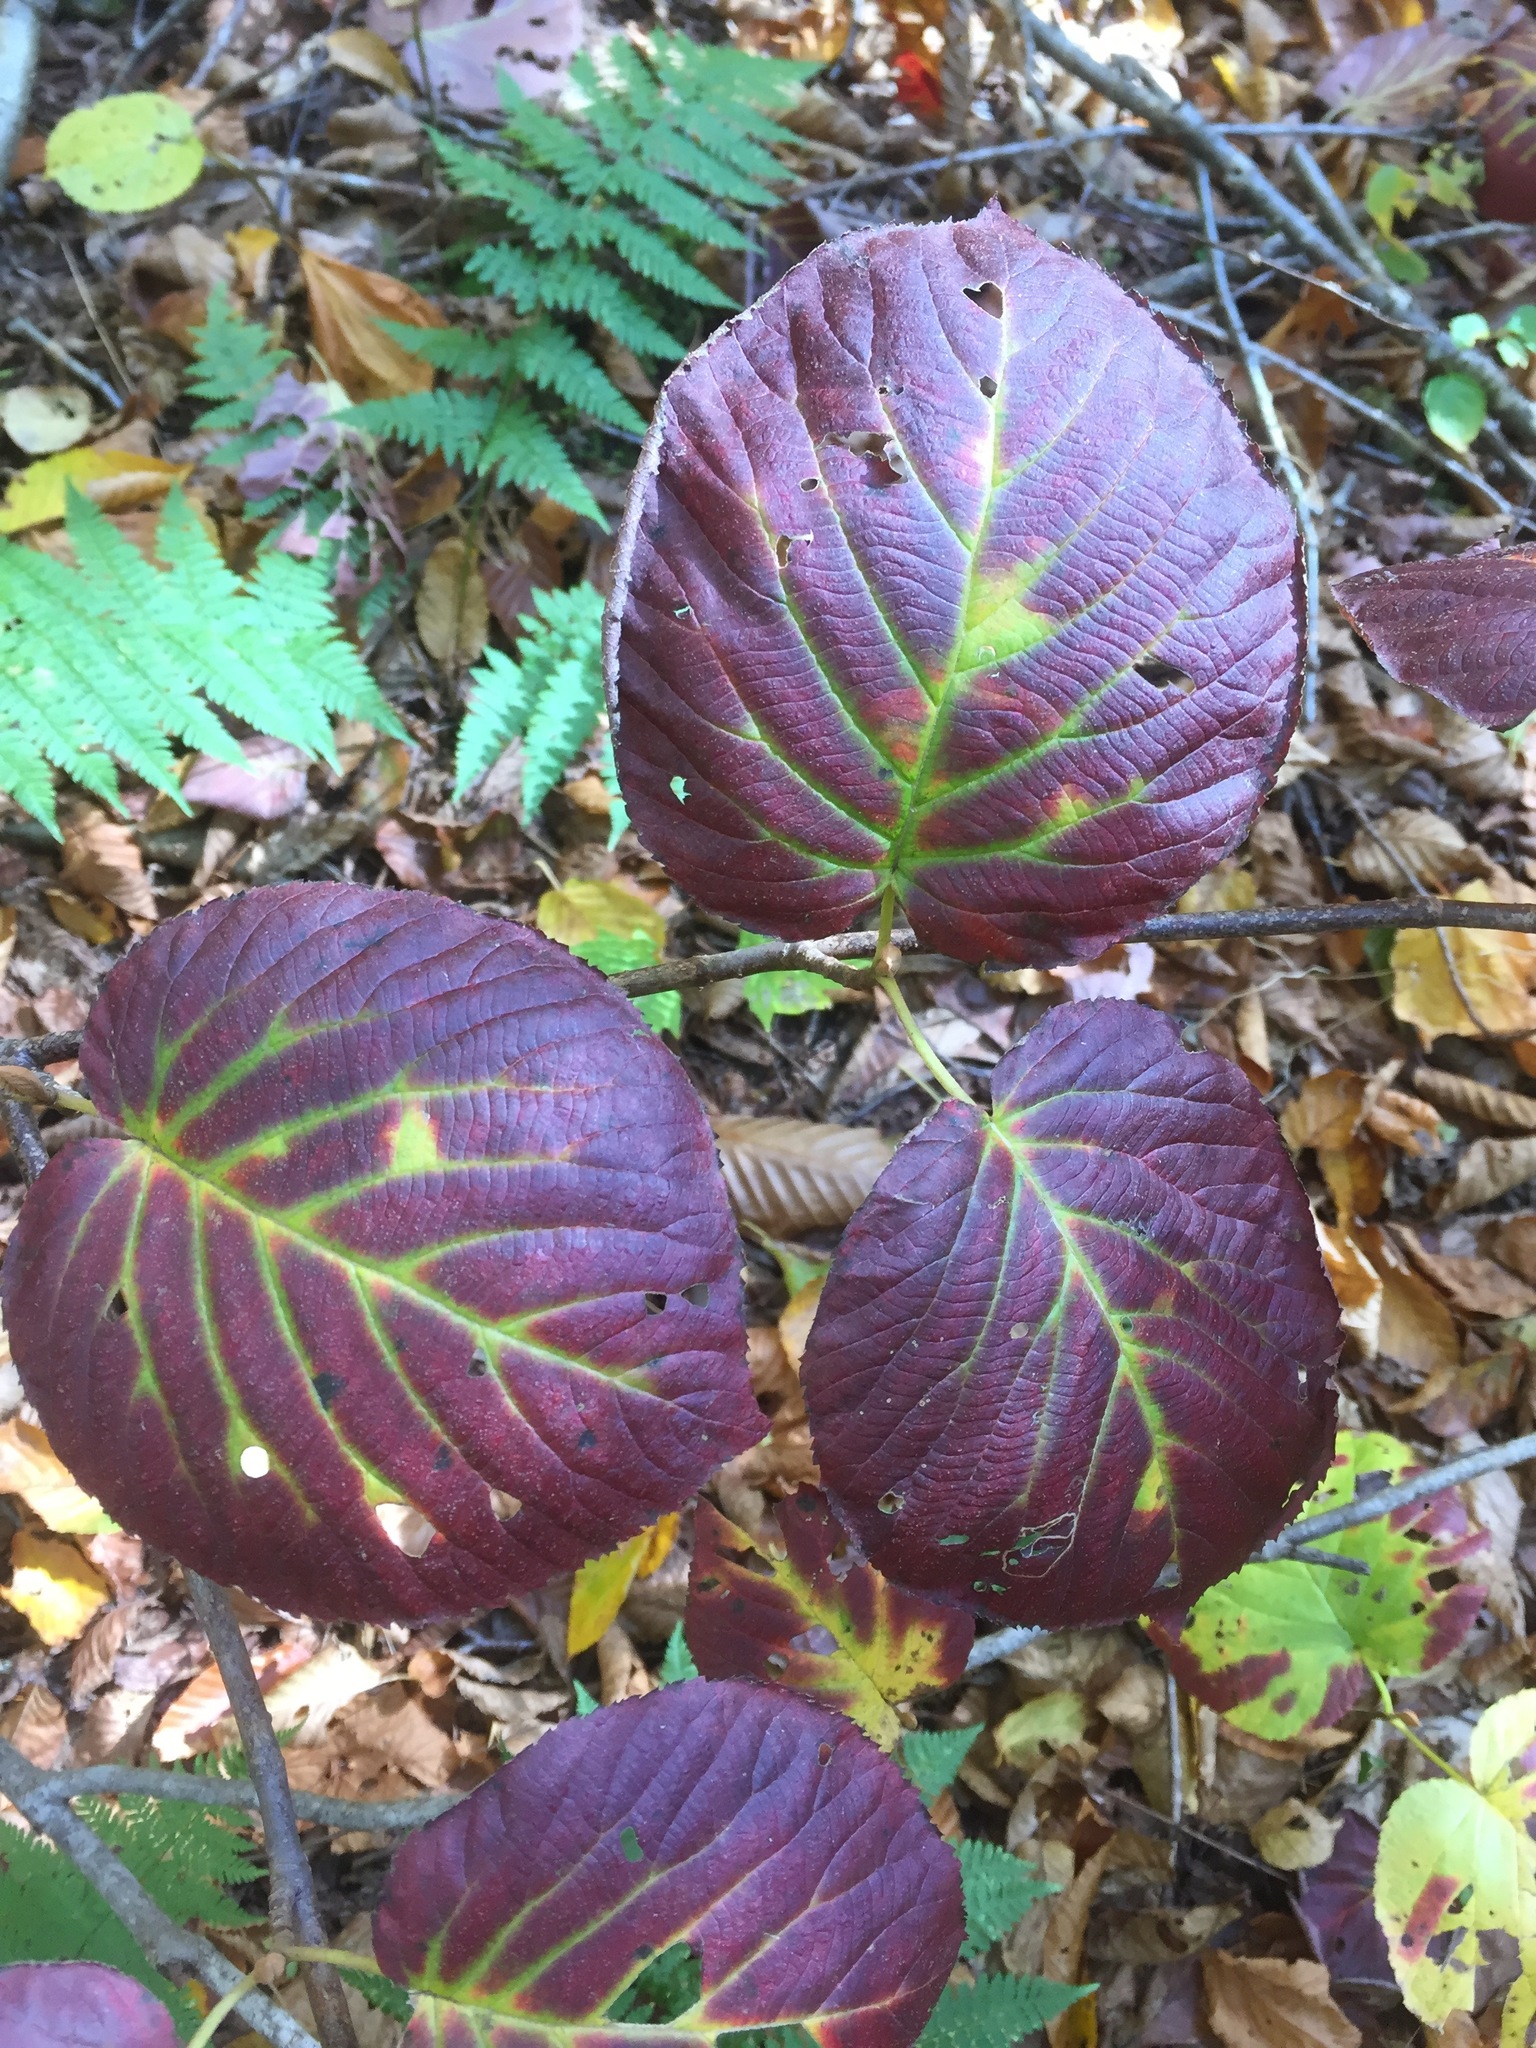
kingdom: Plantae
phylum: Tracheophyta
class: Magnoliopsida
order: Dipsacales
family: Viburnaceae
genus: Viburnum
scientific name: Viburnum lantanoides
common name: Hobblebush
